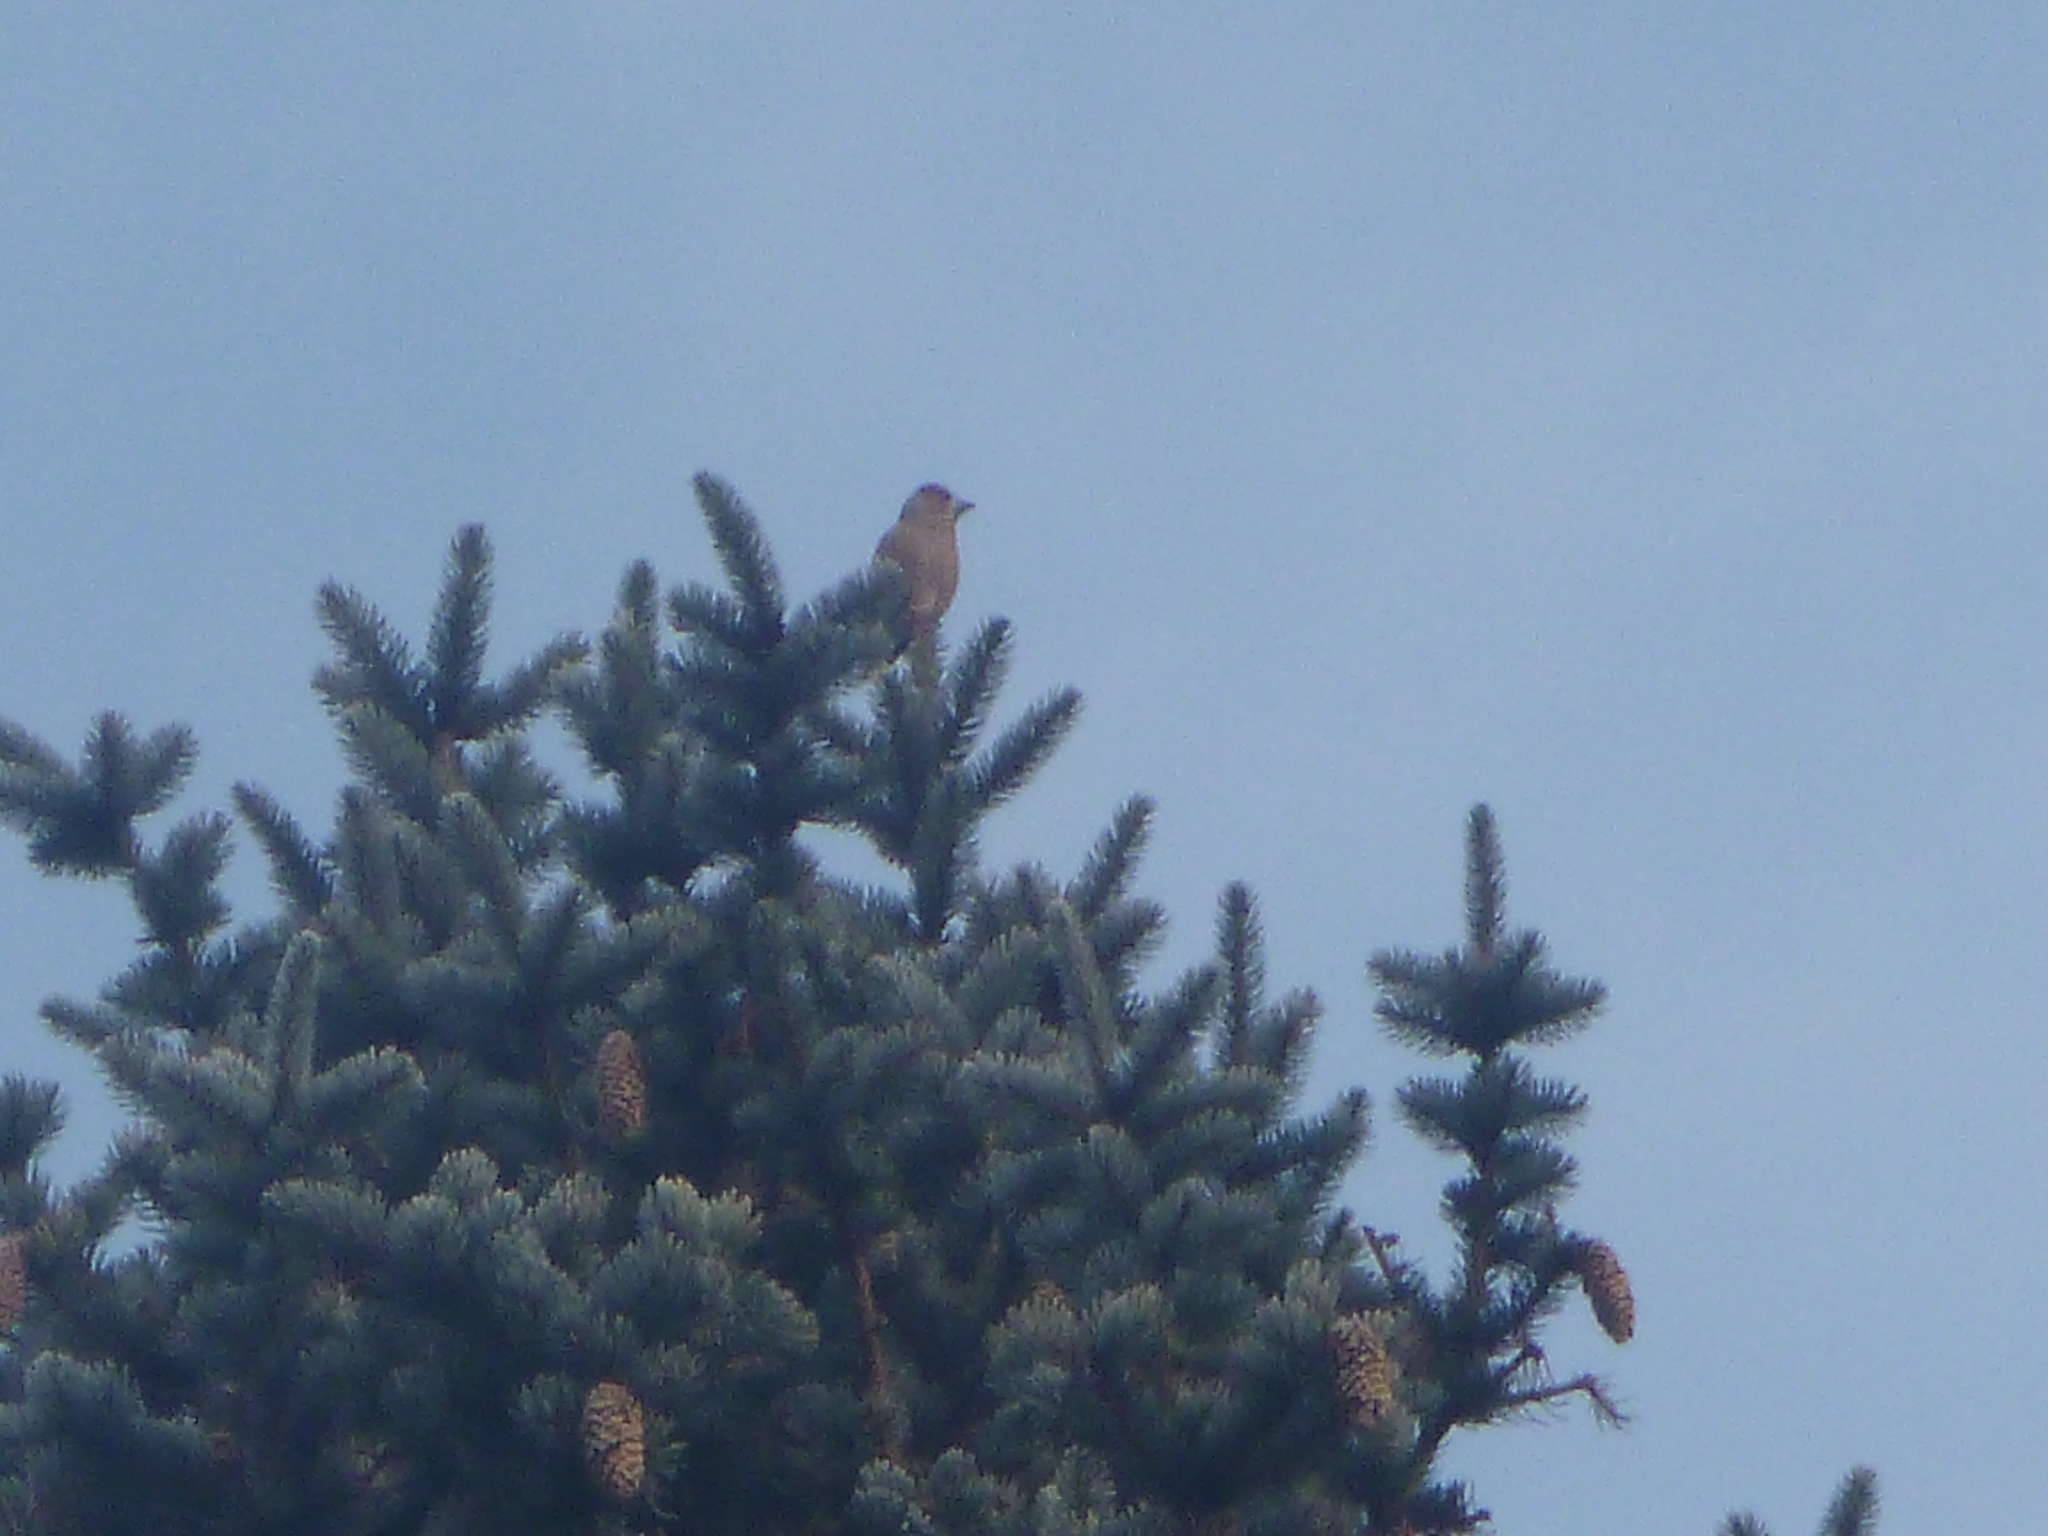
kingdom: Animalia
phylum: Chordata
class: Aves
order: Passeriformes
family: Fringillidae
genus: Coccothraustes
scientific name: Coccothraustes coccothraustes
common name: Hawfinch
